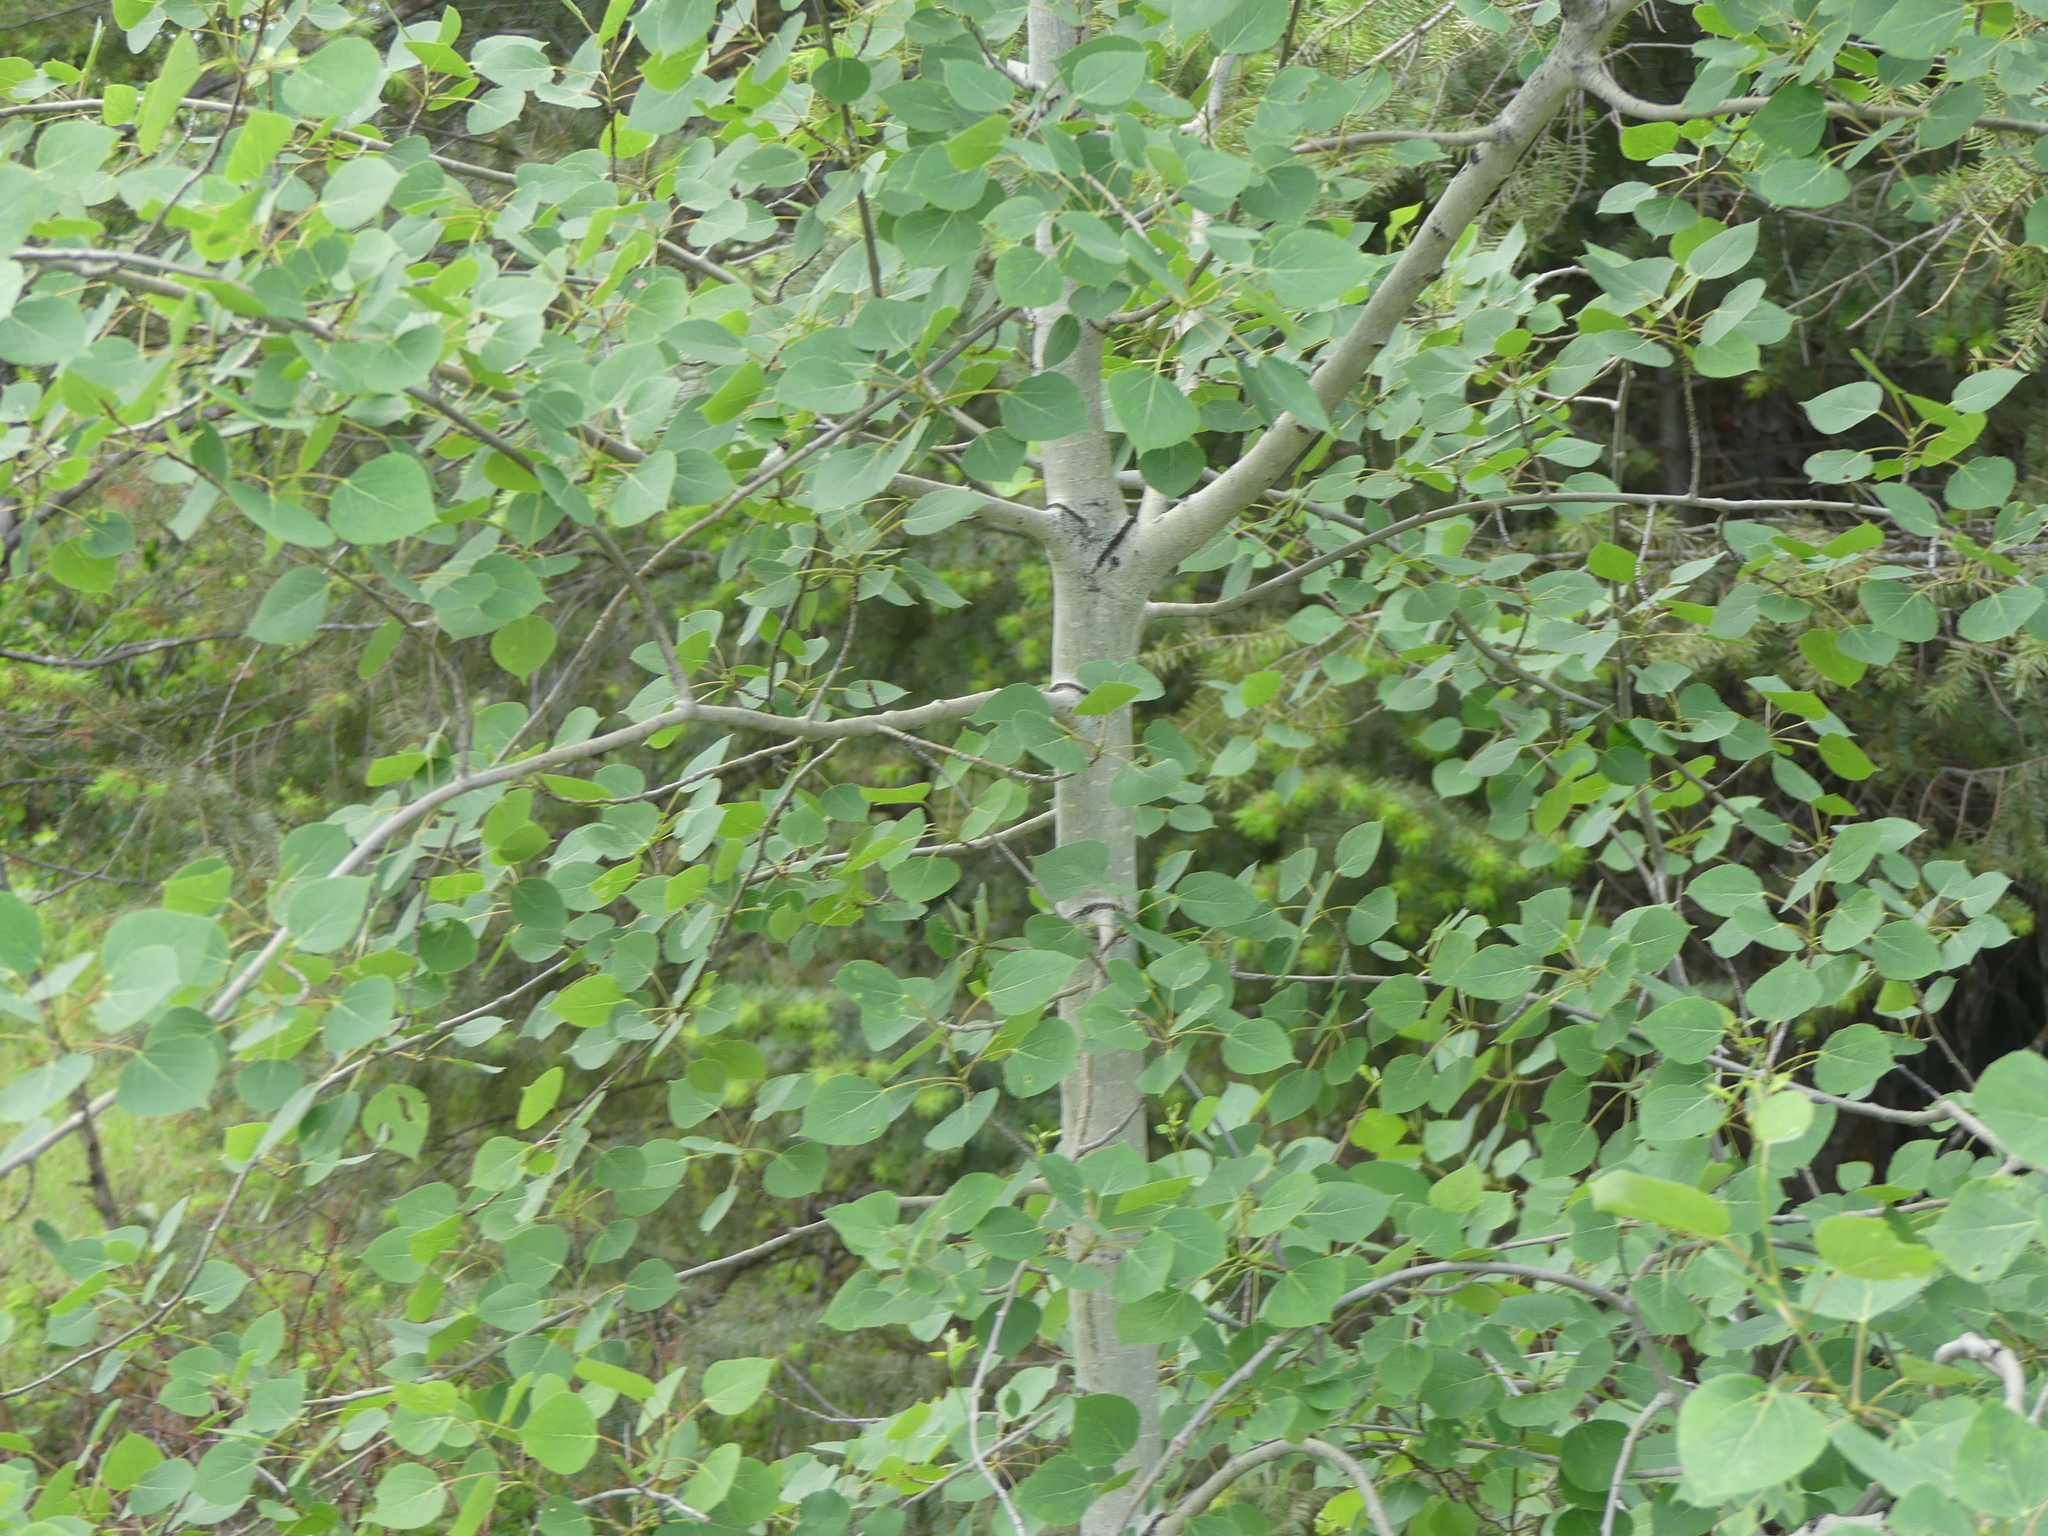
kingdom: Plantae
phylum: Tracheophyta
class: Magnoliopsida
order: Malpighiales
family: Salicaceae
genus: Populus
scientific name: Populus tremuloides
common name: Quaking aspen
